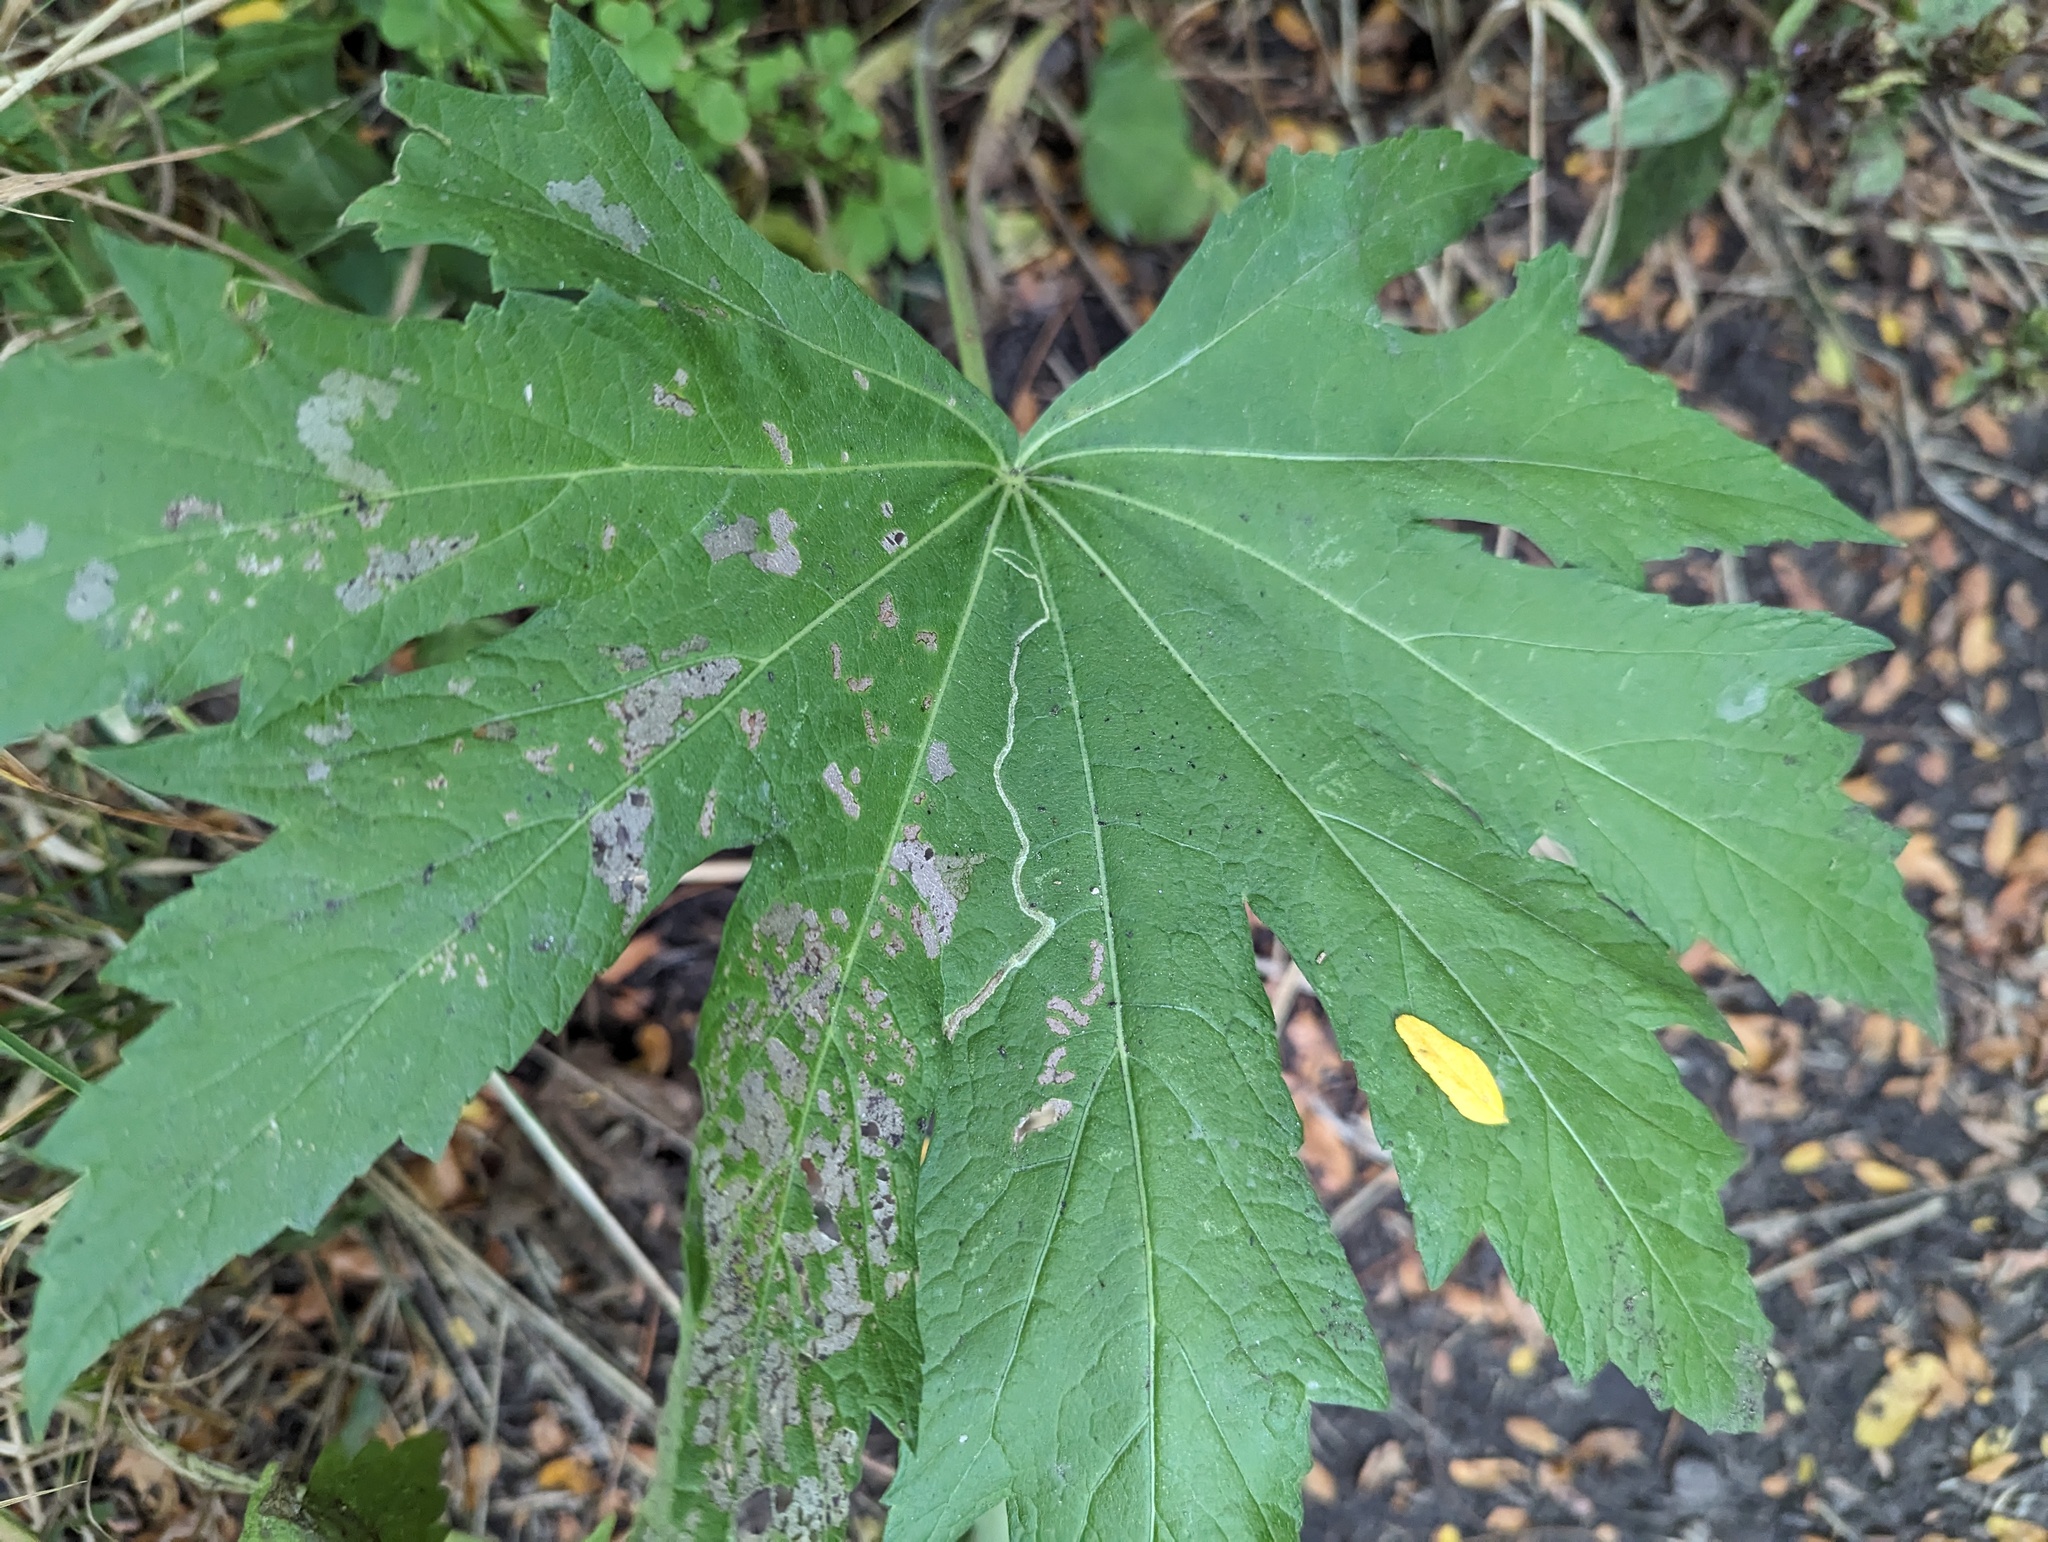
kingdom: Animalia
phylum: Arthropoda
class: Insecta
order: Diptera
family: Agromyzidae
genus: Calycomyza
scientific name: Calycomyza malvae
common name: Mallow leaf miner
